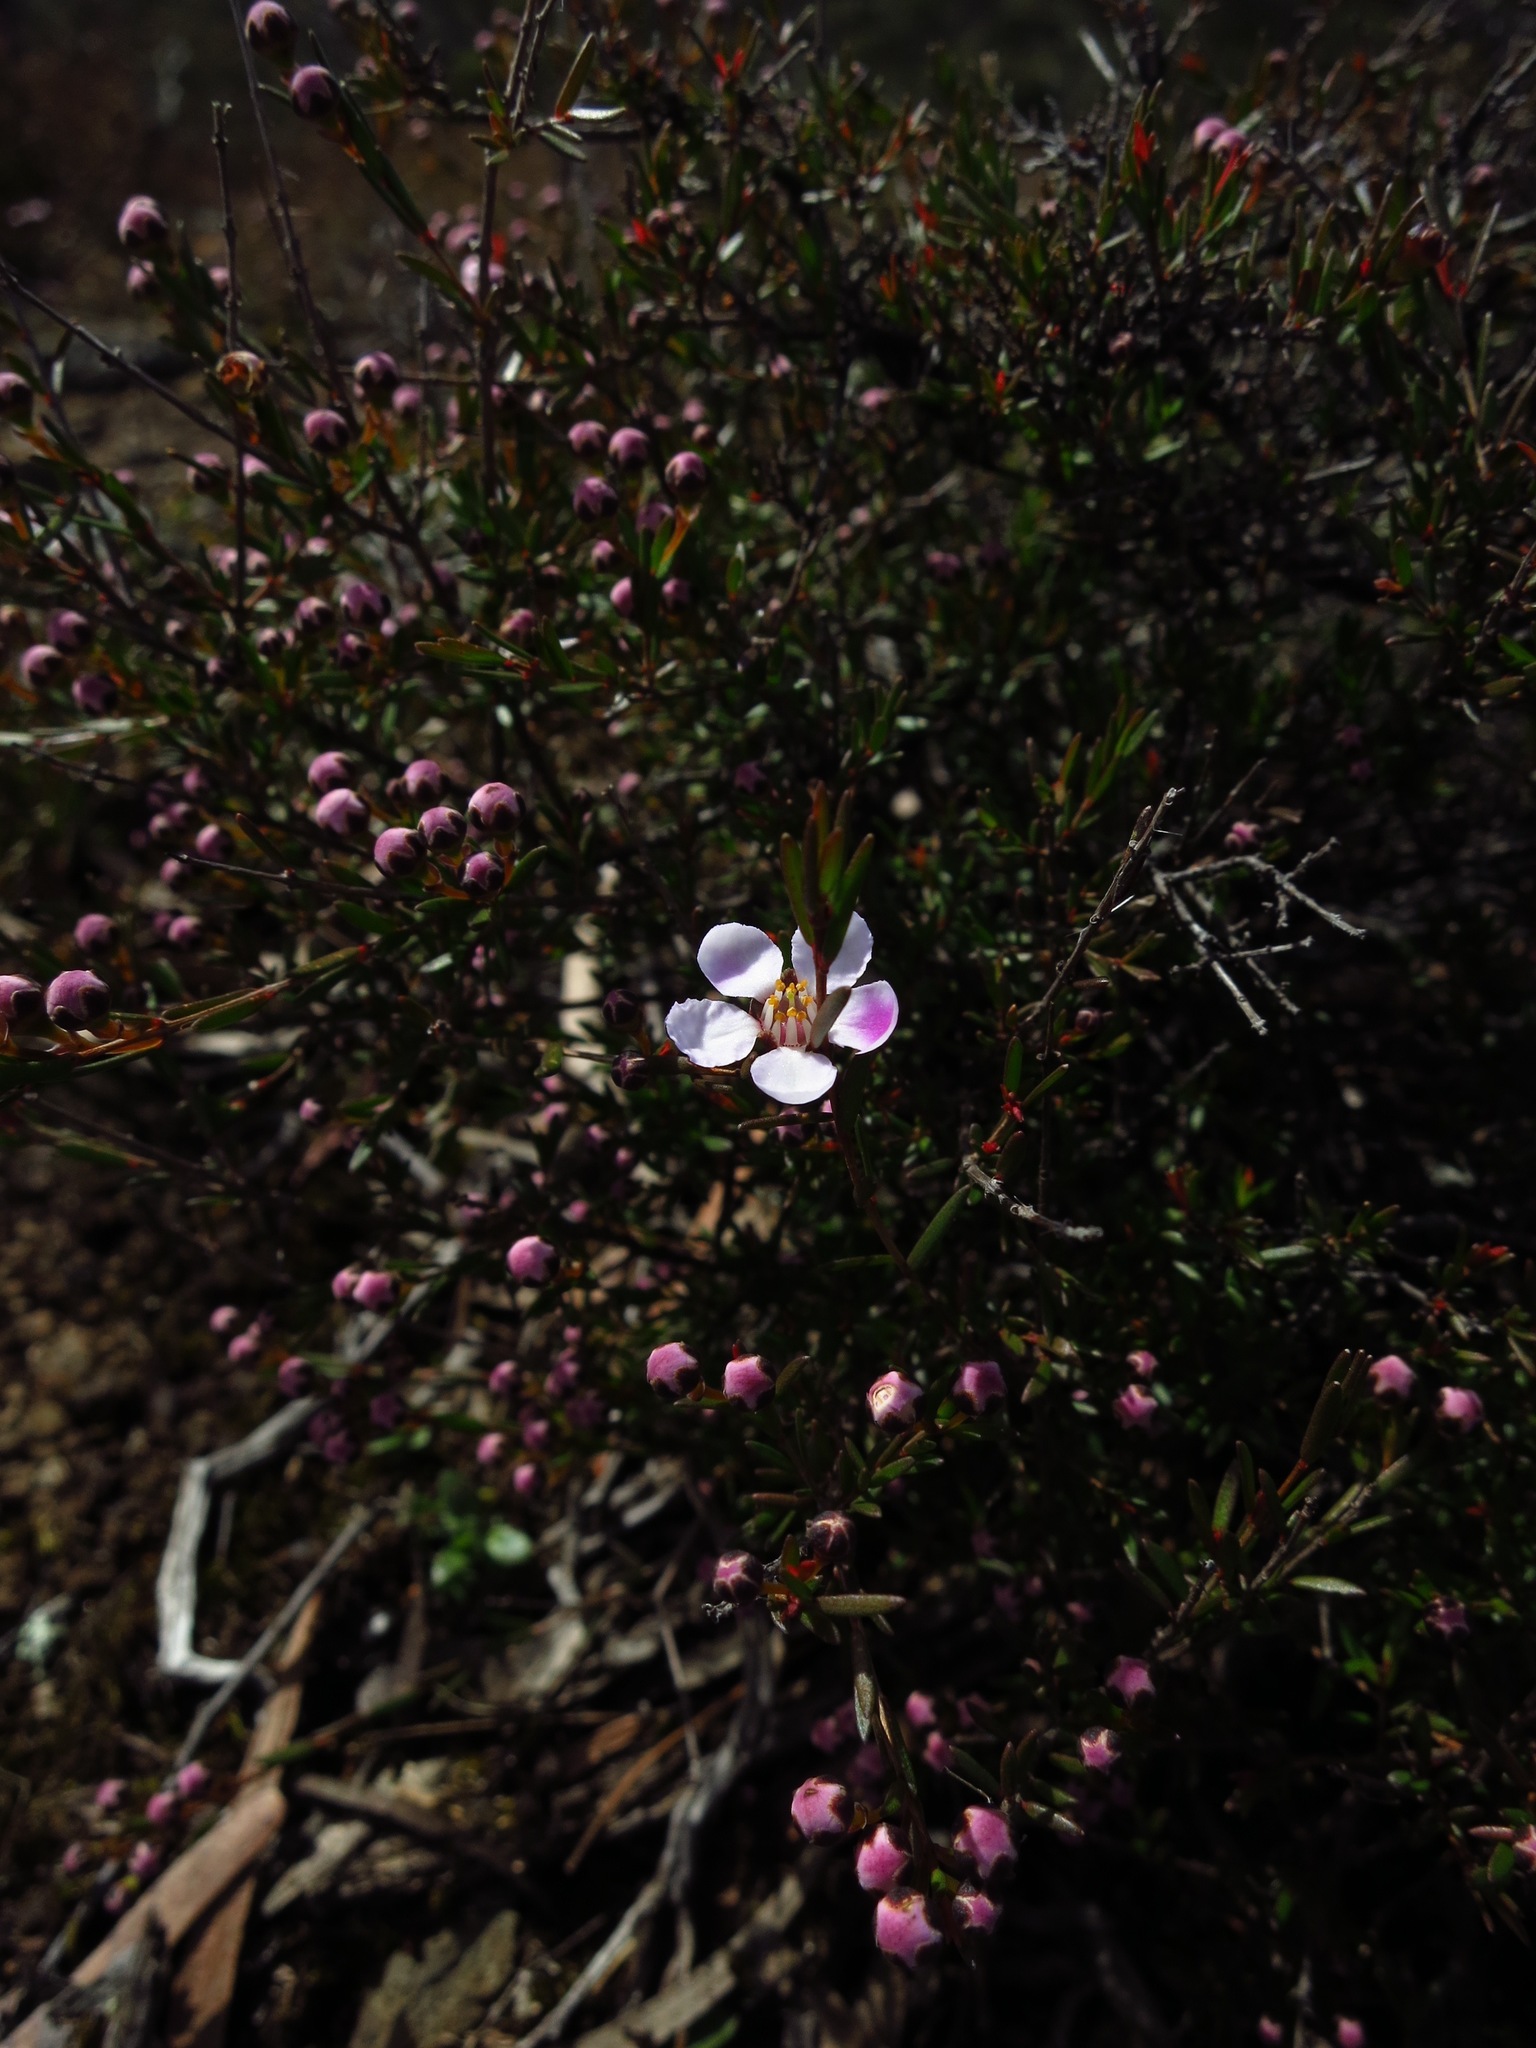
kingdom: Plantae
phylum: Tracheophyta
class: Magnoliopsida
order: Myrtales
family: Myrtaceae
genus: Euryomyrtus
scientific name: Euryomyrtus ramosissima
